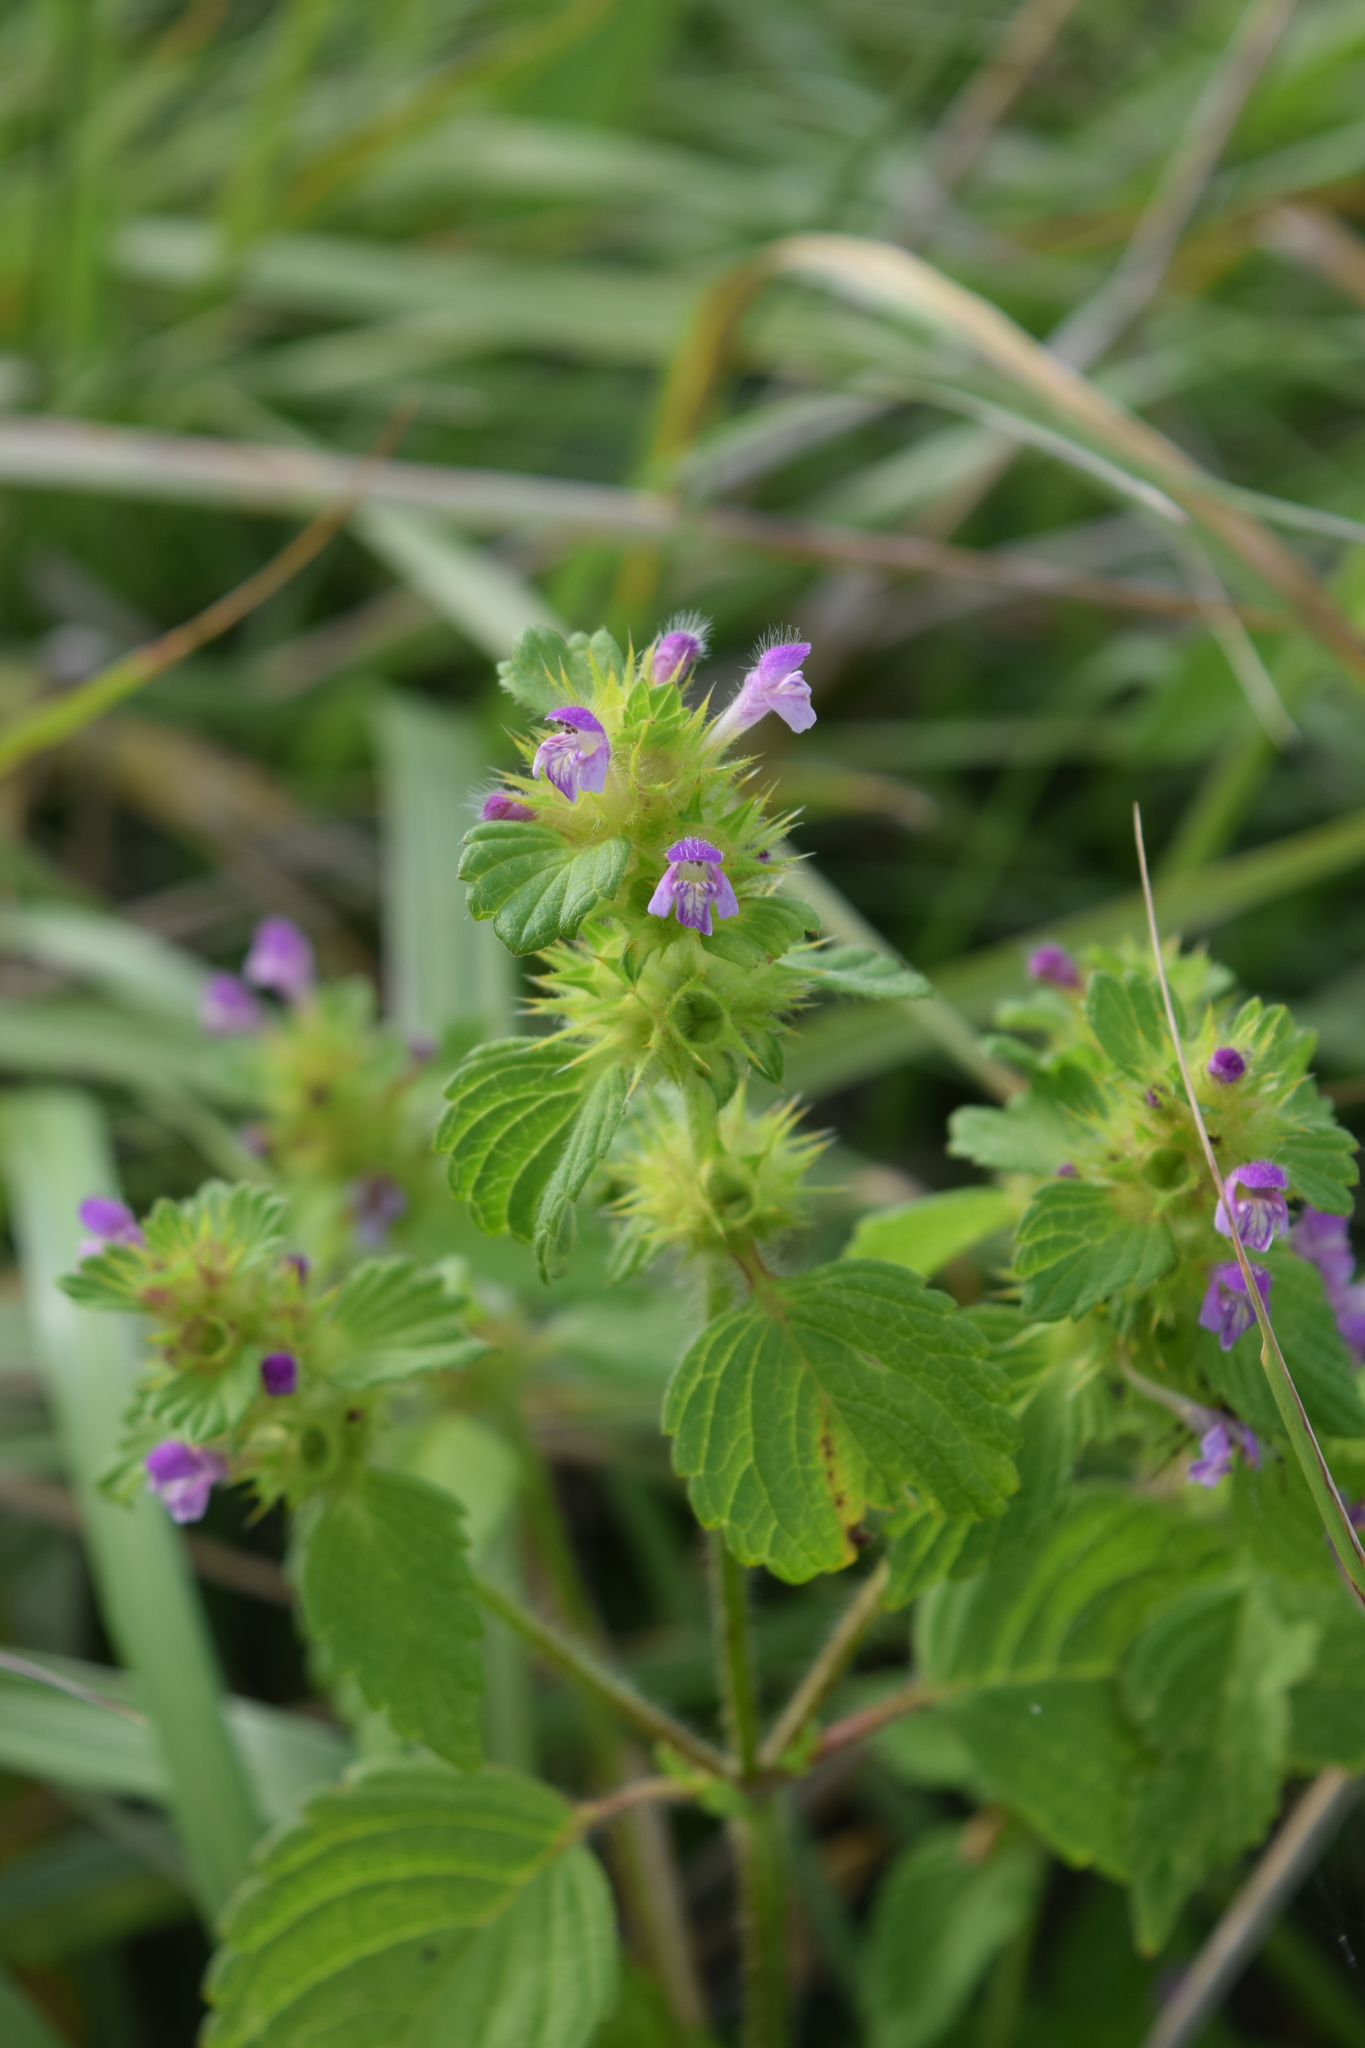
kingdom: Plantae
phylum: Tracheophyta
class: Magnoliopsida
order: Lamiales
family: Lamiaceae
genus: Galeopsis
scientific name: Galeopsis bifida
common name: Bifid hemp-nettle
